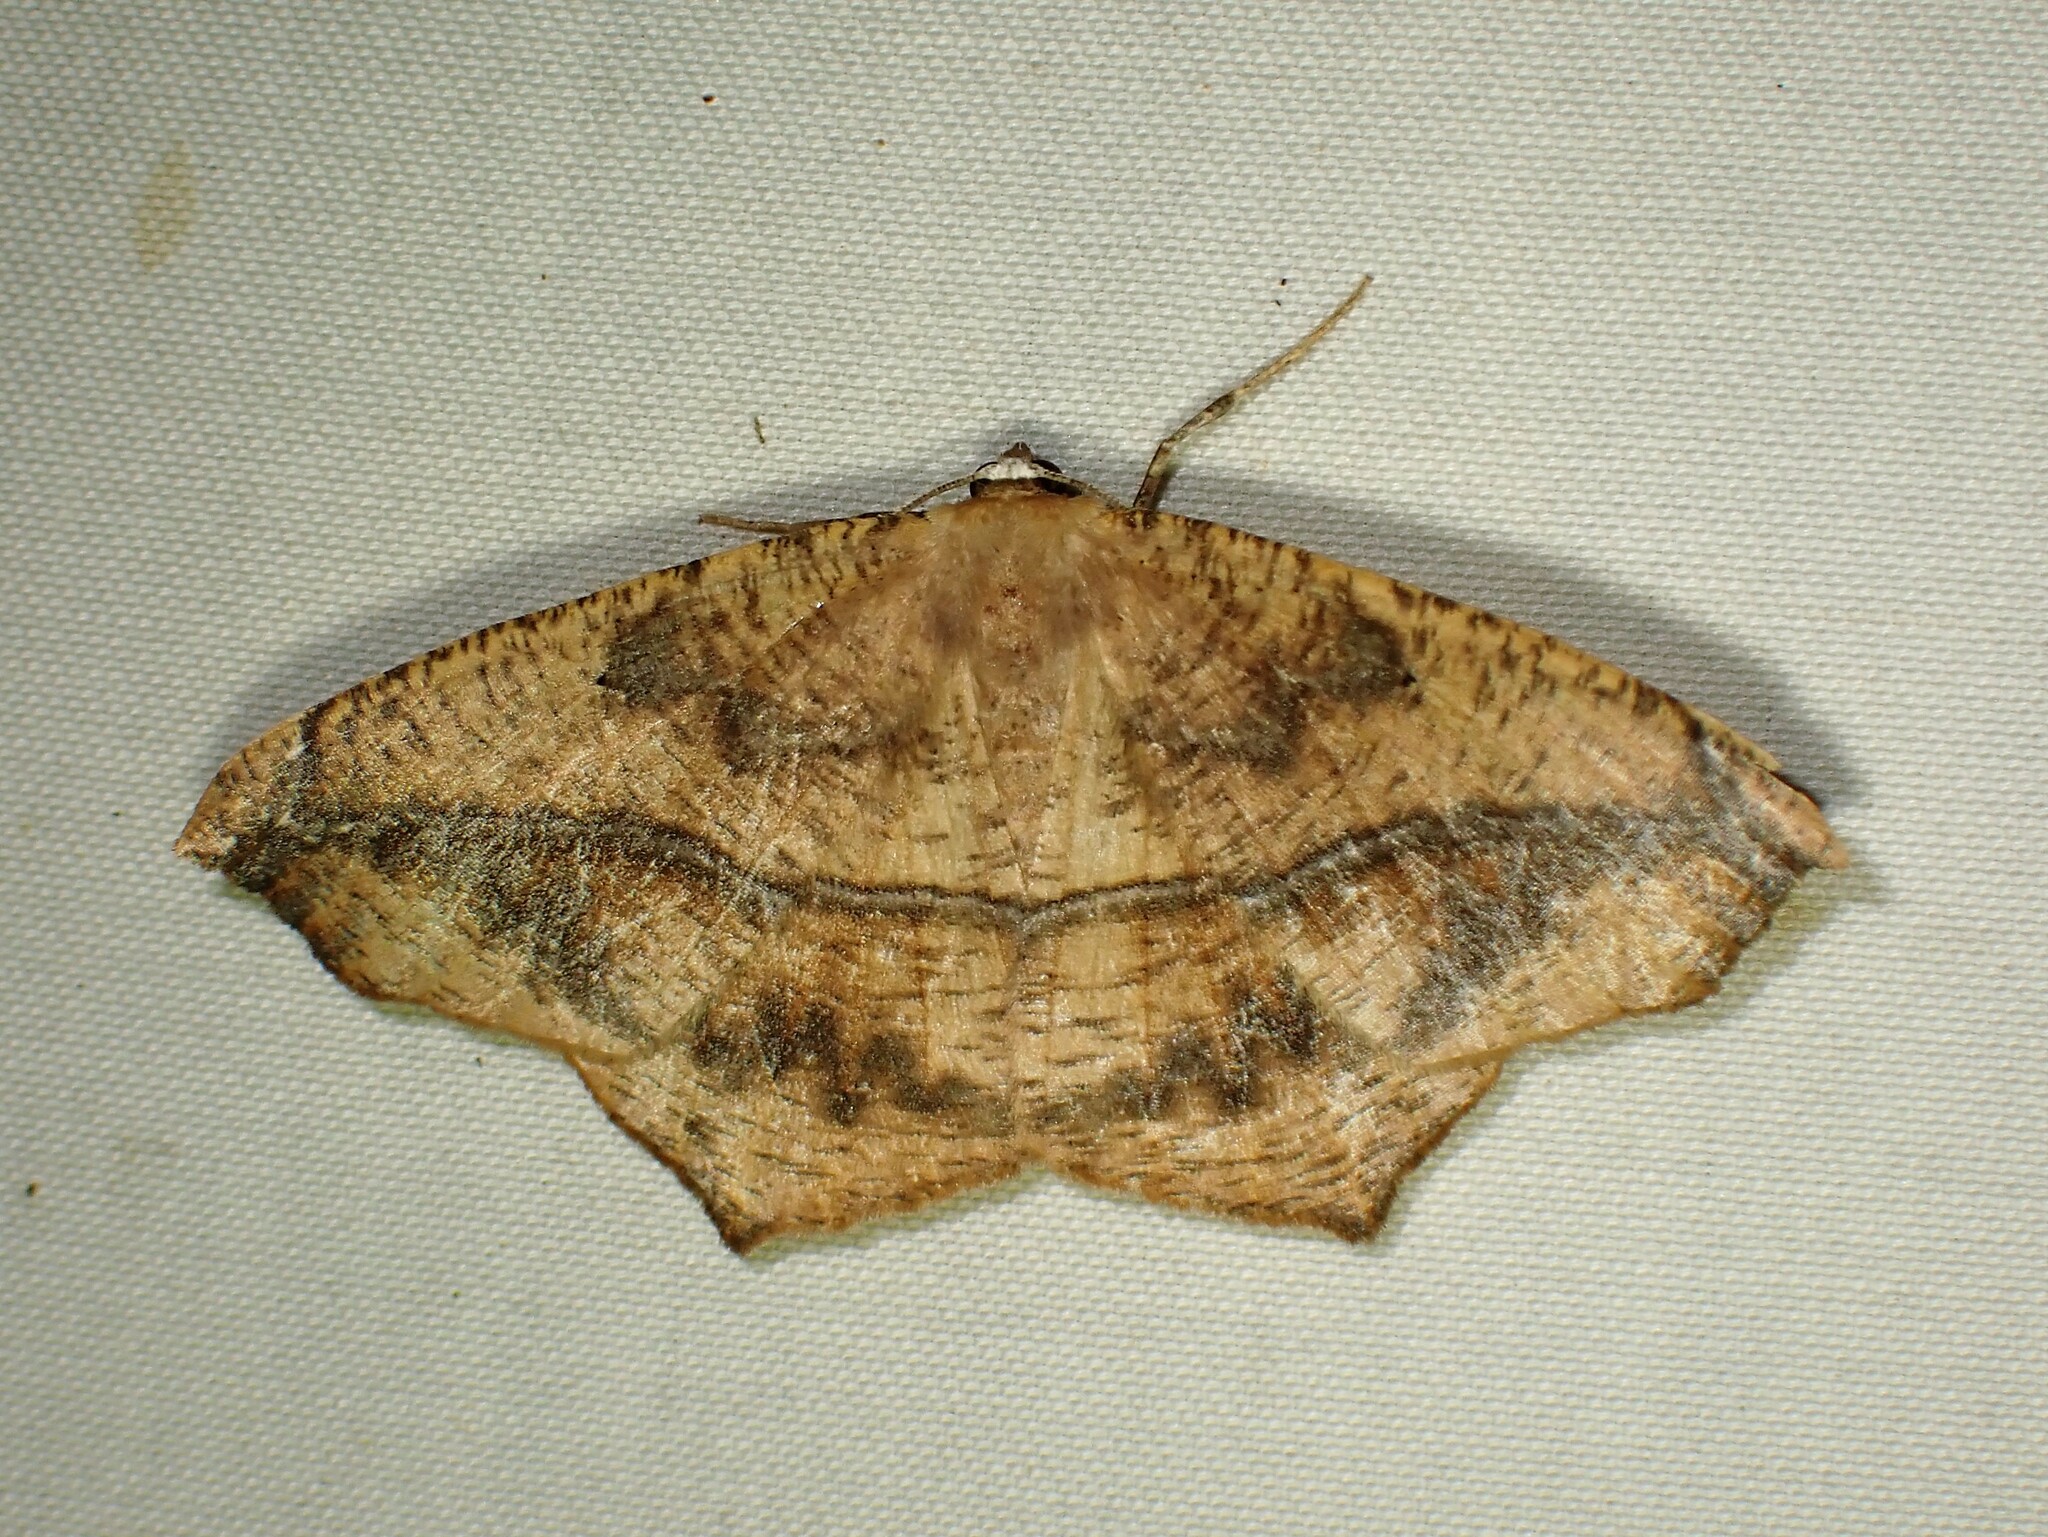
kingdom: Animalia
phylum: Arthropoda
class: Insecta
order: Lepidoptera
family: Geometridae
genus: Prochoerodes
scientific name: Prochoerodes lineola
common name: Large maple spanworm
